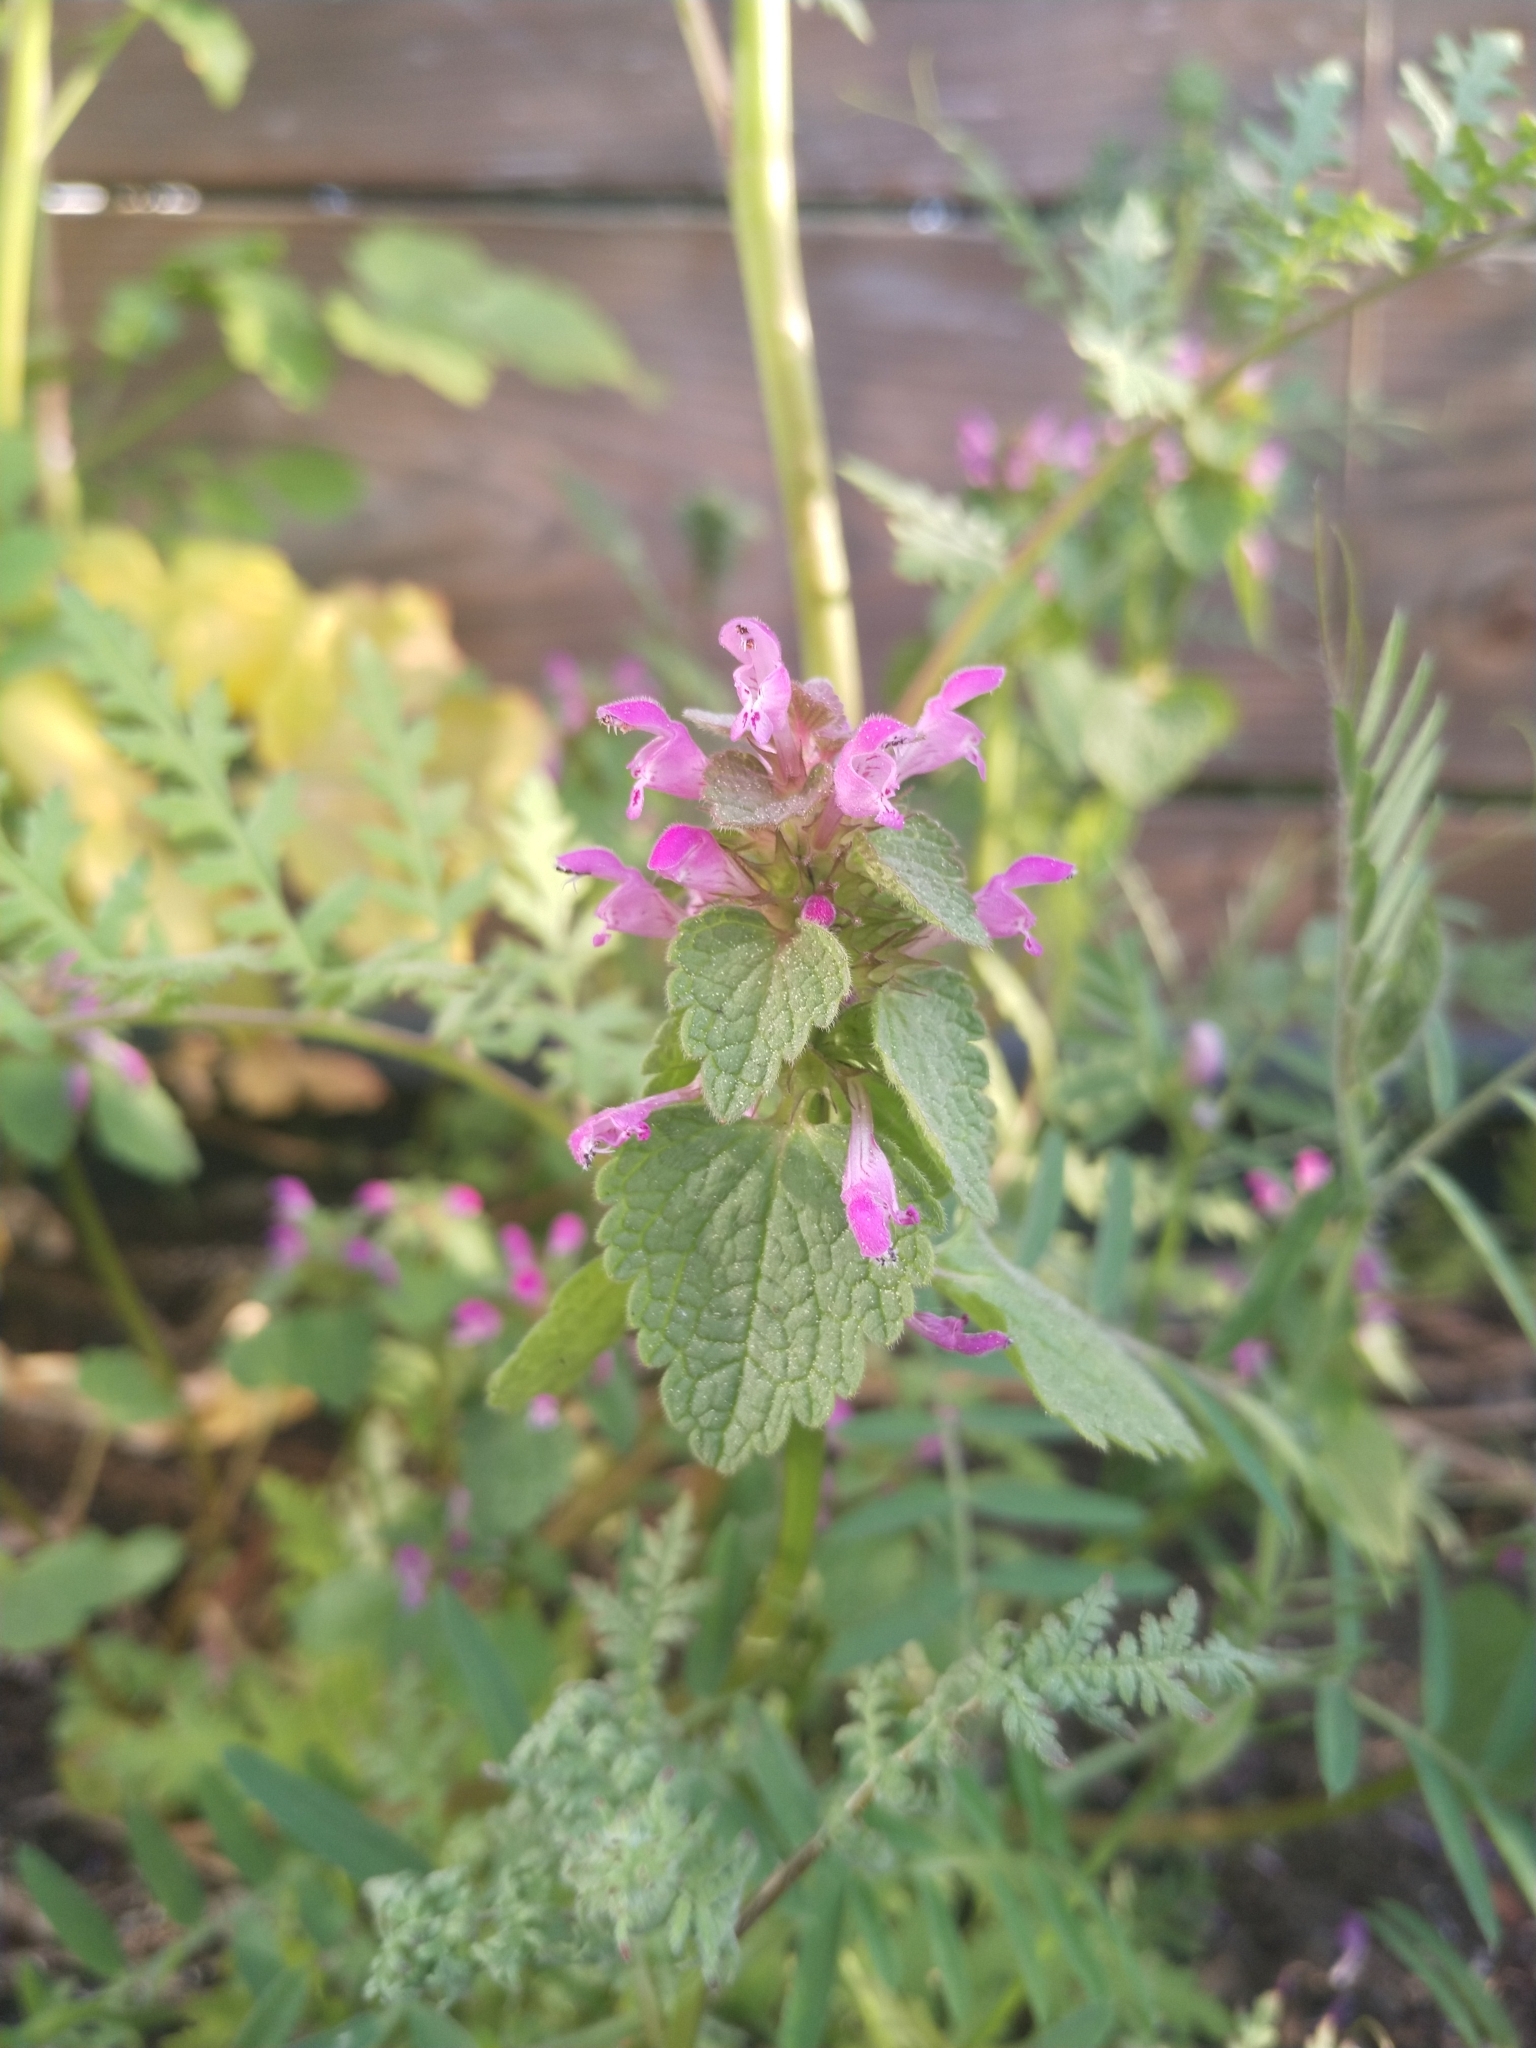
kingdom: Plantae
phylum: Tracheophyta
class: Magnoliopsida
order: Lamiales
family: Lamiaceae
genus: Lamium
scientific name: Lamium purpureum
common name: Red dead-nettle
